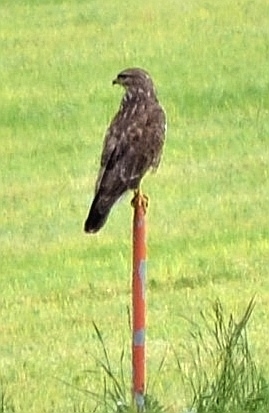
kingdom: Animalia
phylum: Chordata
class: Aves
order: Accipitriformes
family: Accipitridae
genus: Buteo
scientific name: Buteo buteo
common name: Common buzzard
